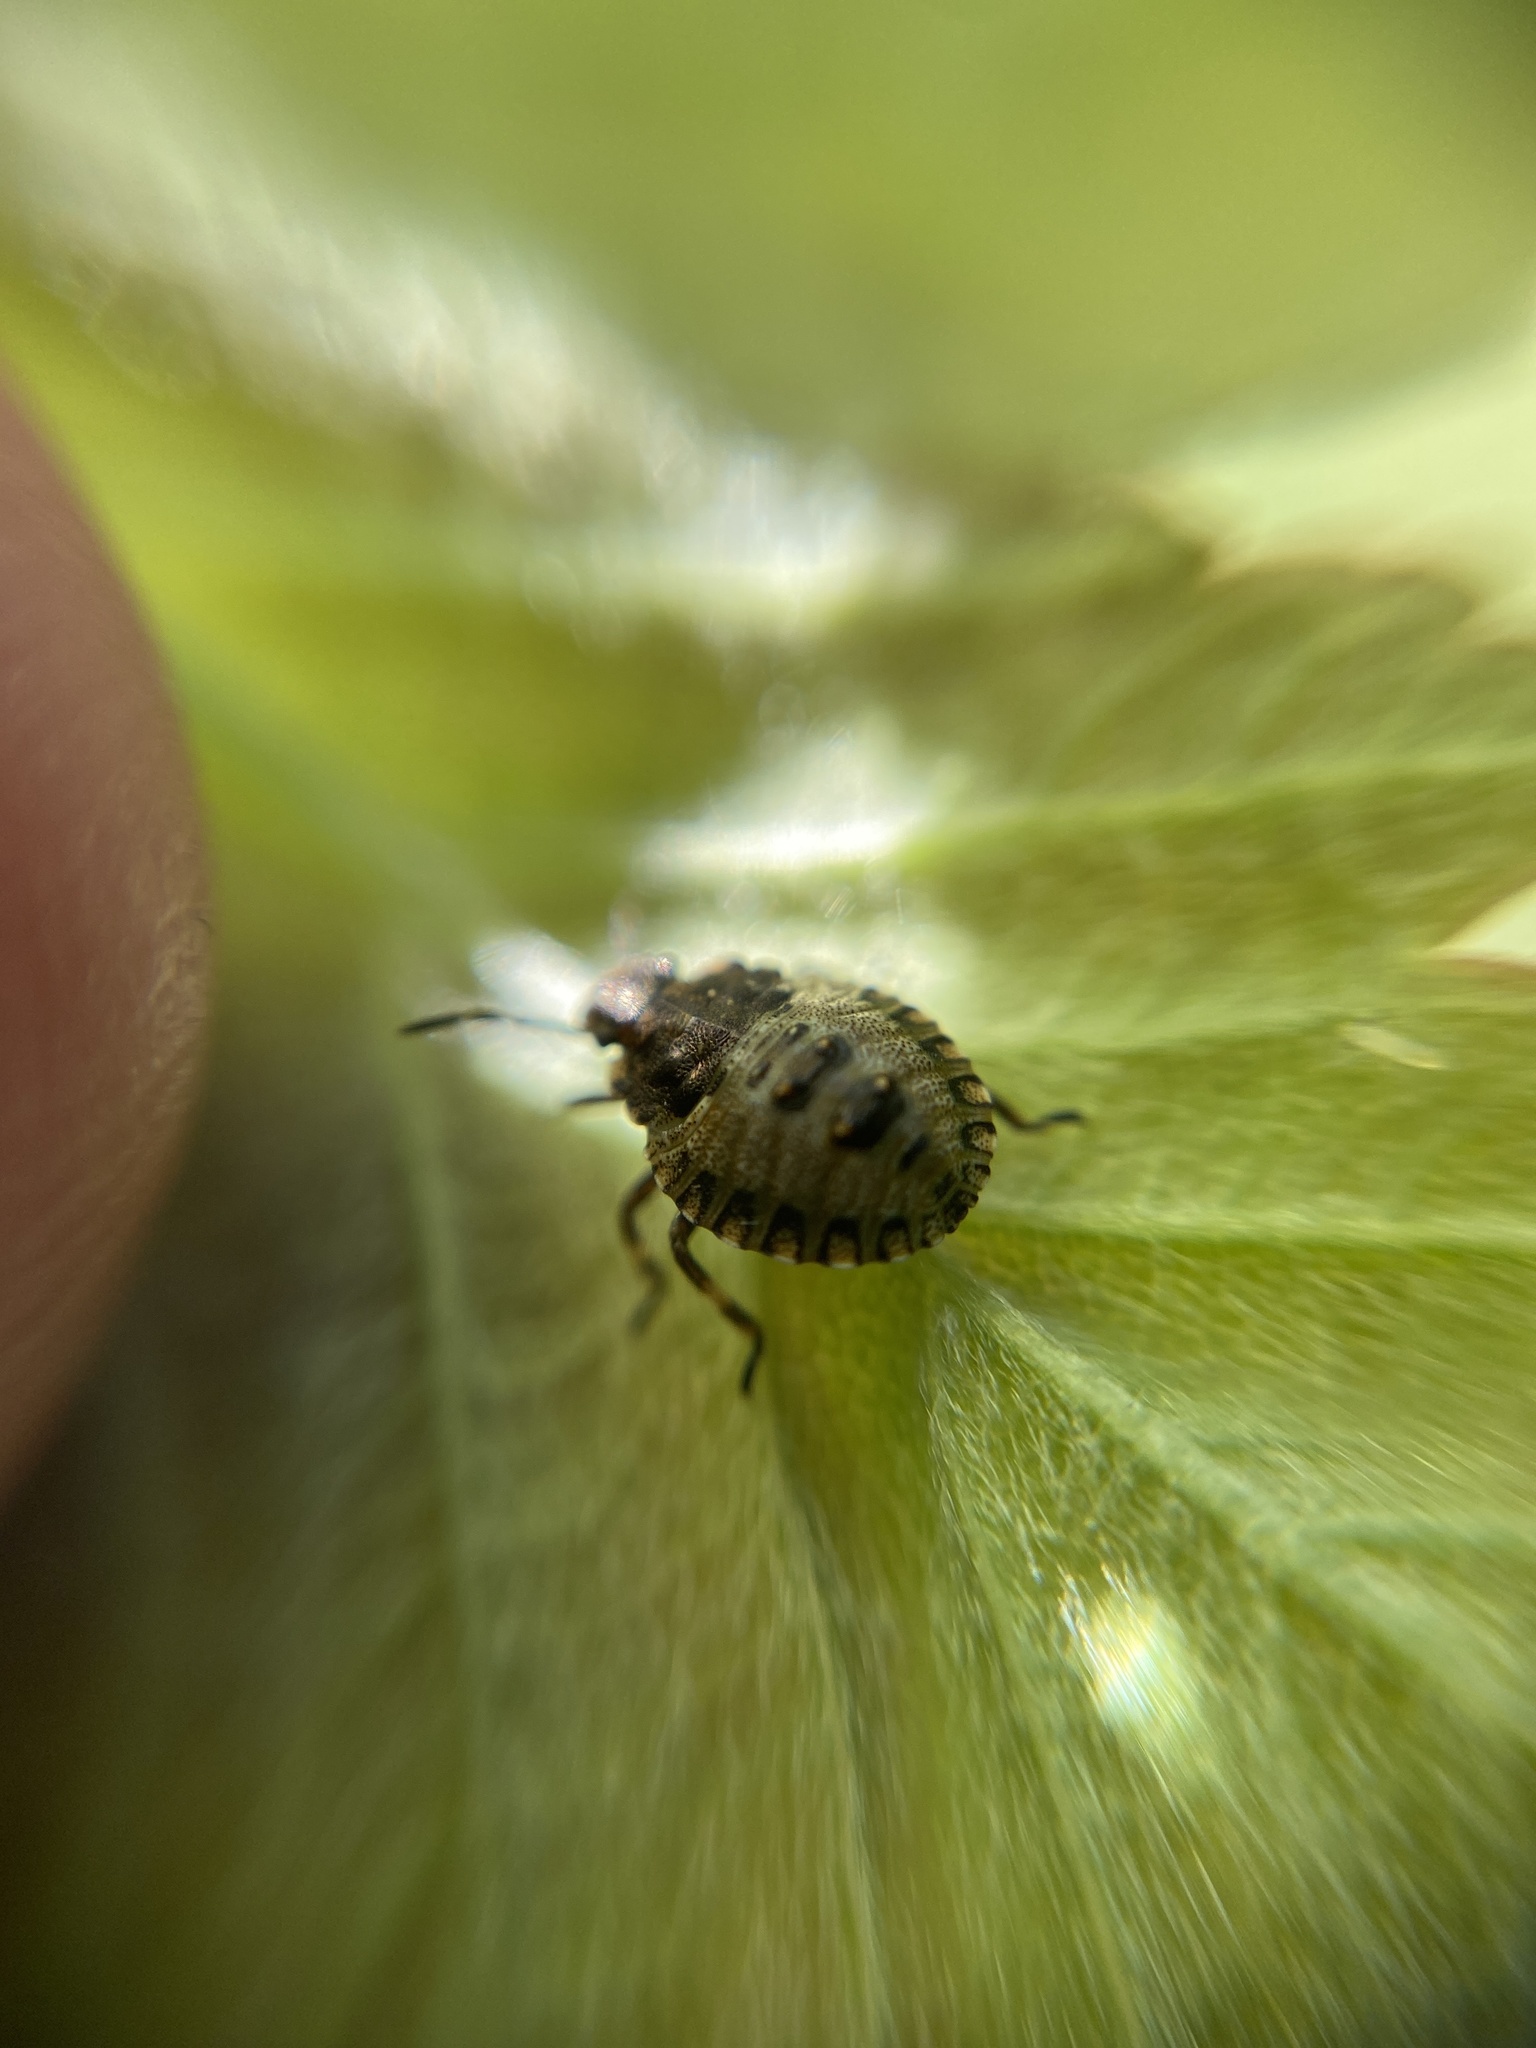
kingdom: Animalia
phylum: Arthropoda
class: Insecta
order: Hemiptera
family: Pentatomidae
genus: Pentatoma
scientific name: Pentatoma rufipes
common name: Forest bug
